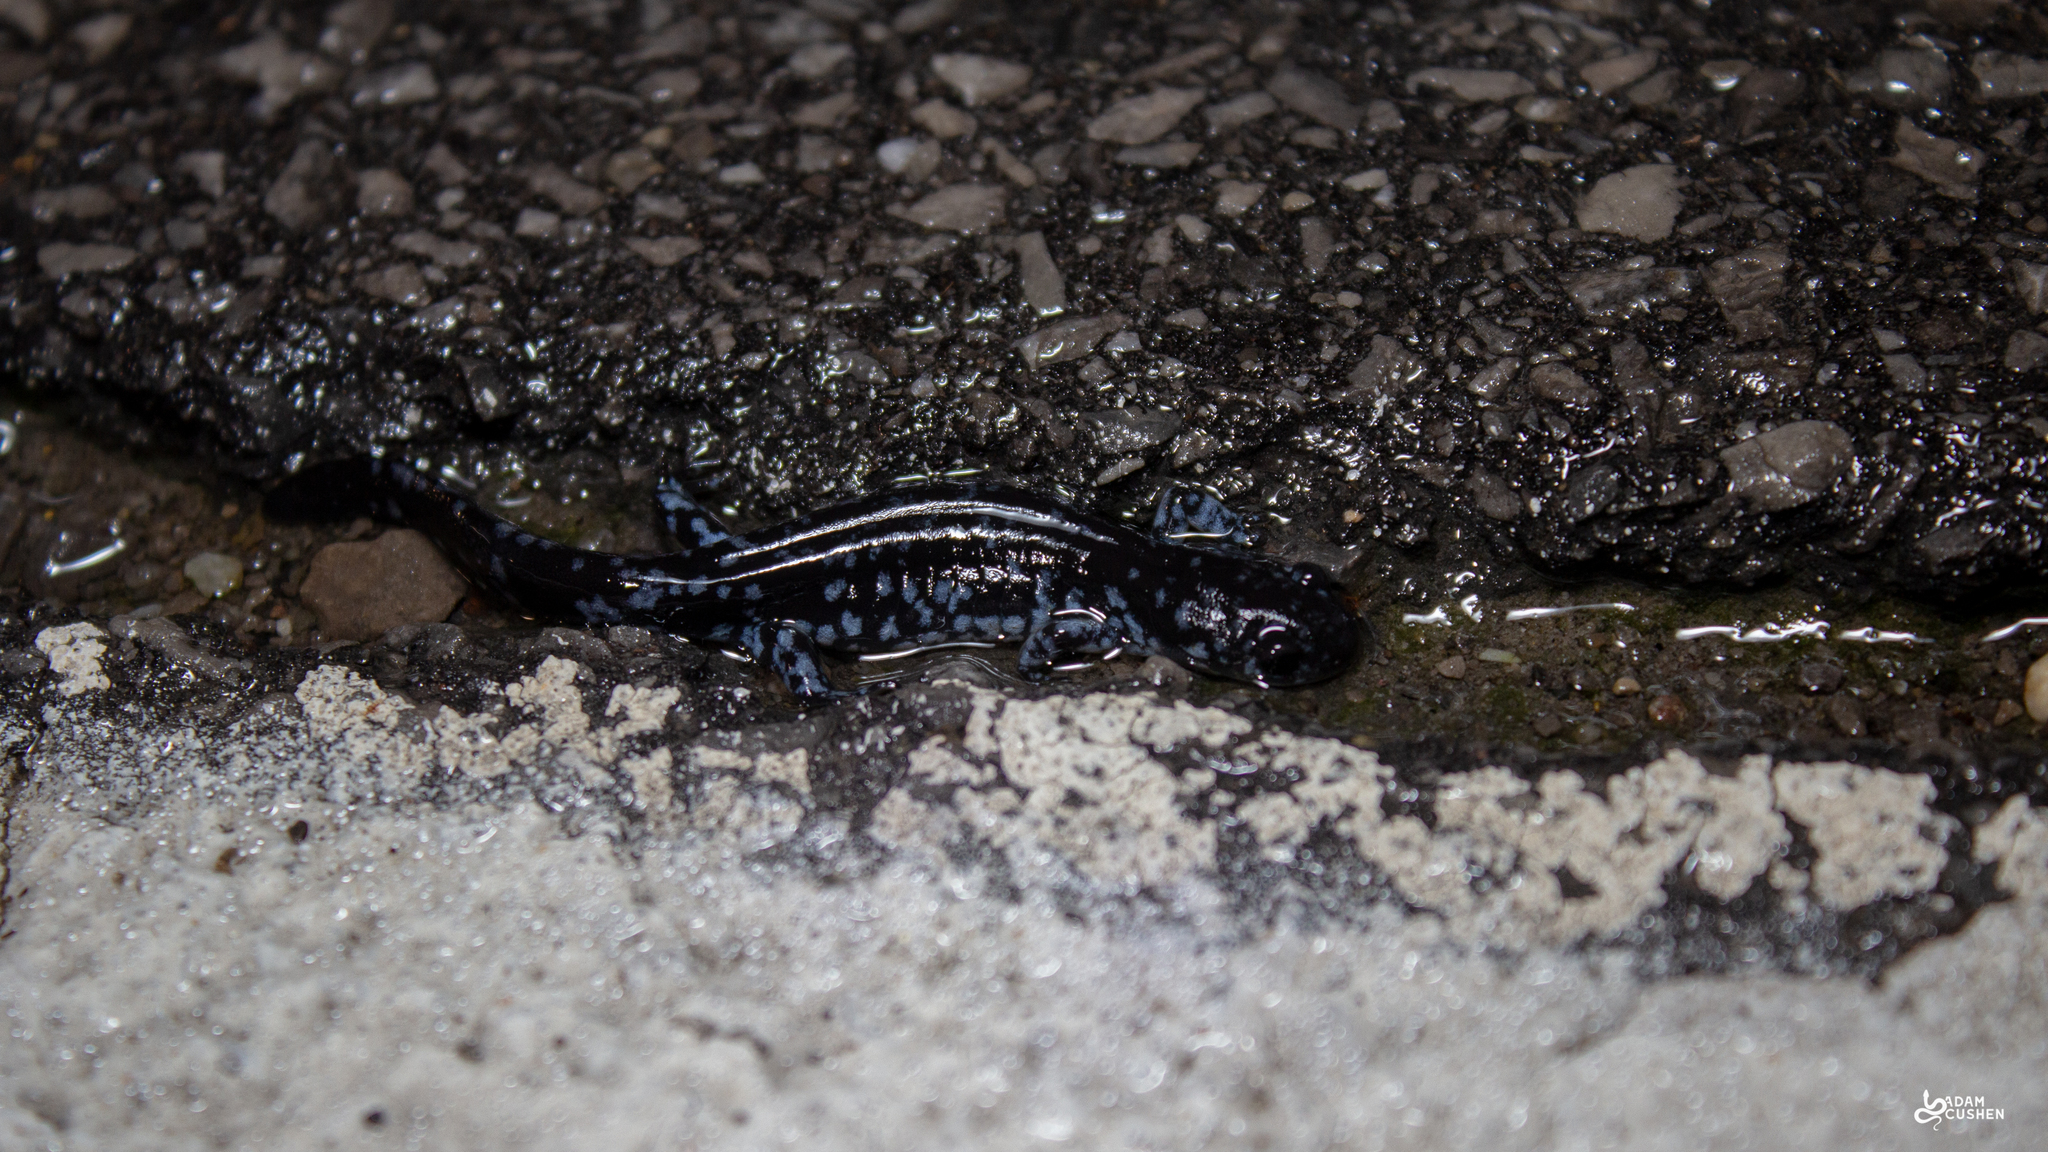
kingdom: Animalia
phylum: Chordata
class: Amphibia
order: Caudata
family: Ambystomatidae
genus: Ambystoma
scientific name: Ambystoma laterale
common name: Blue-spotted salamander
